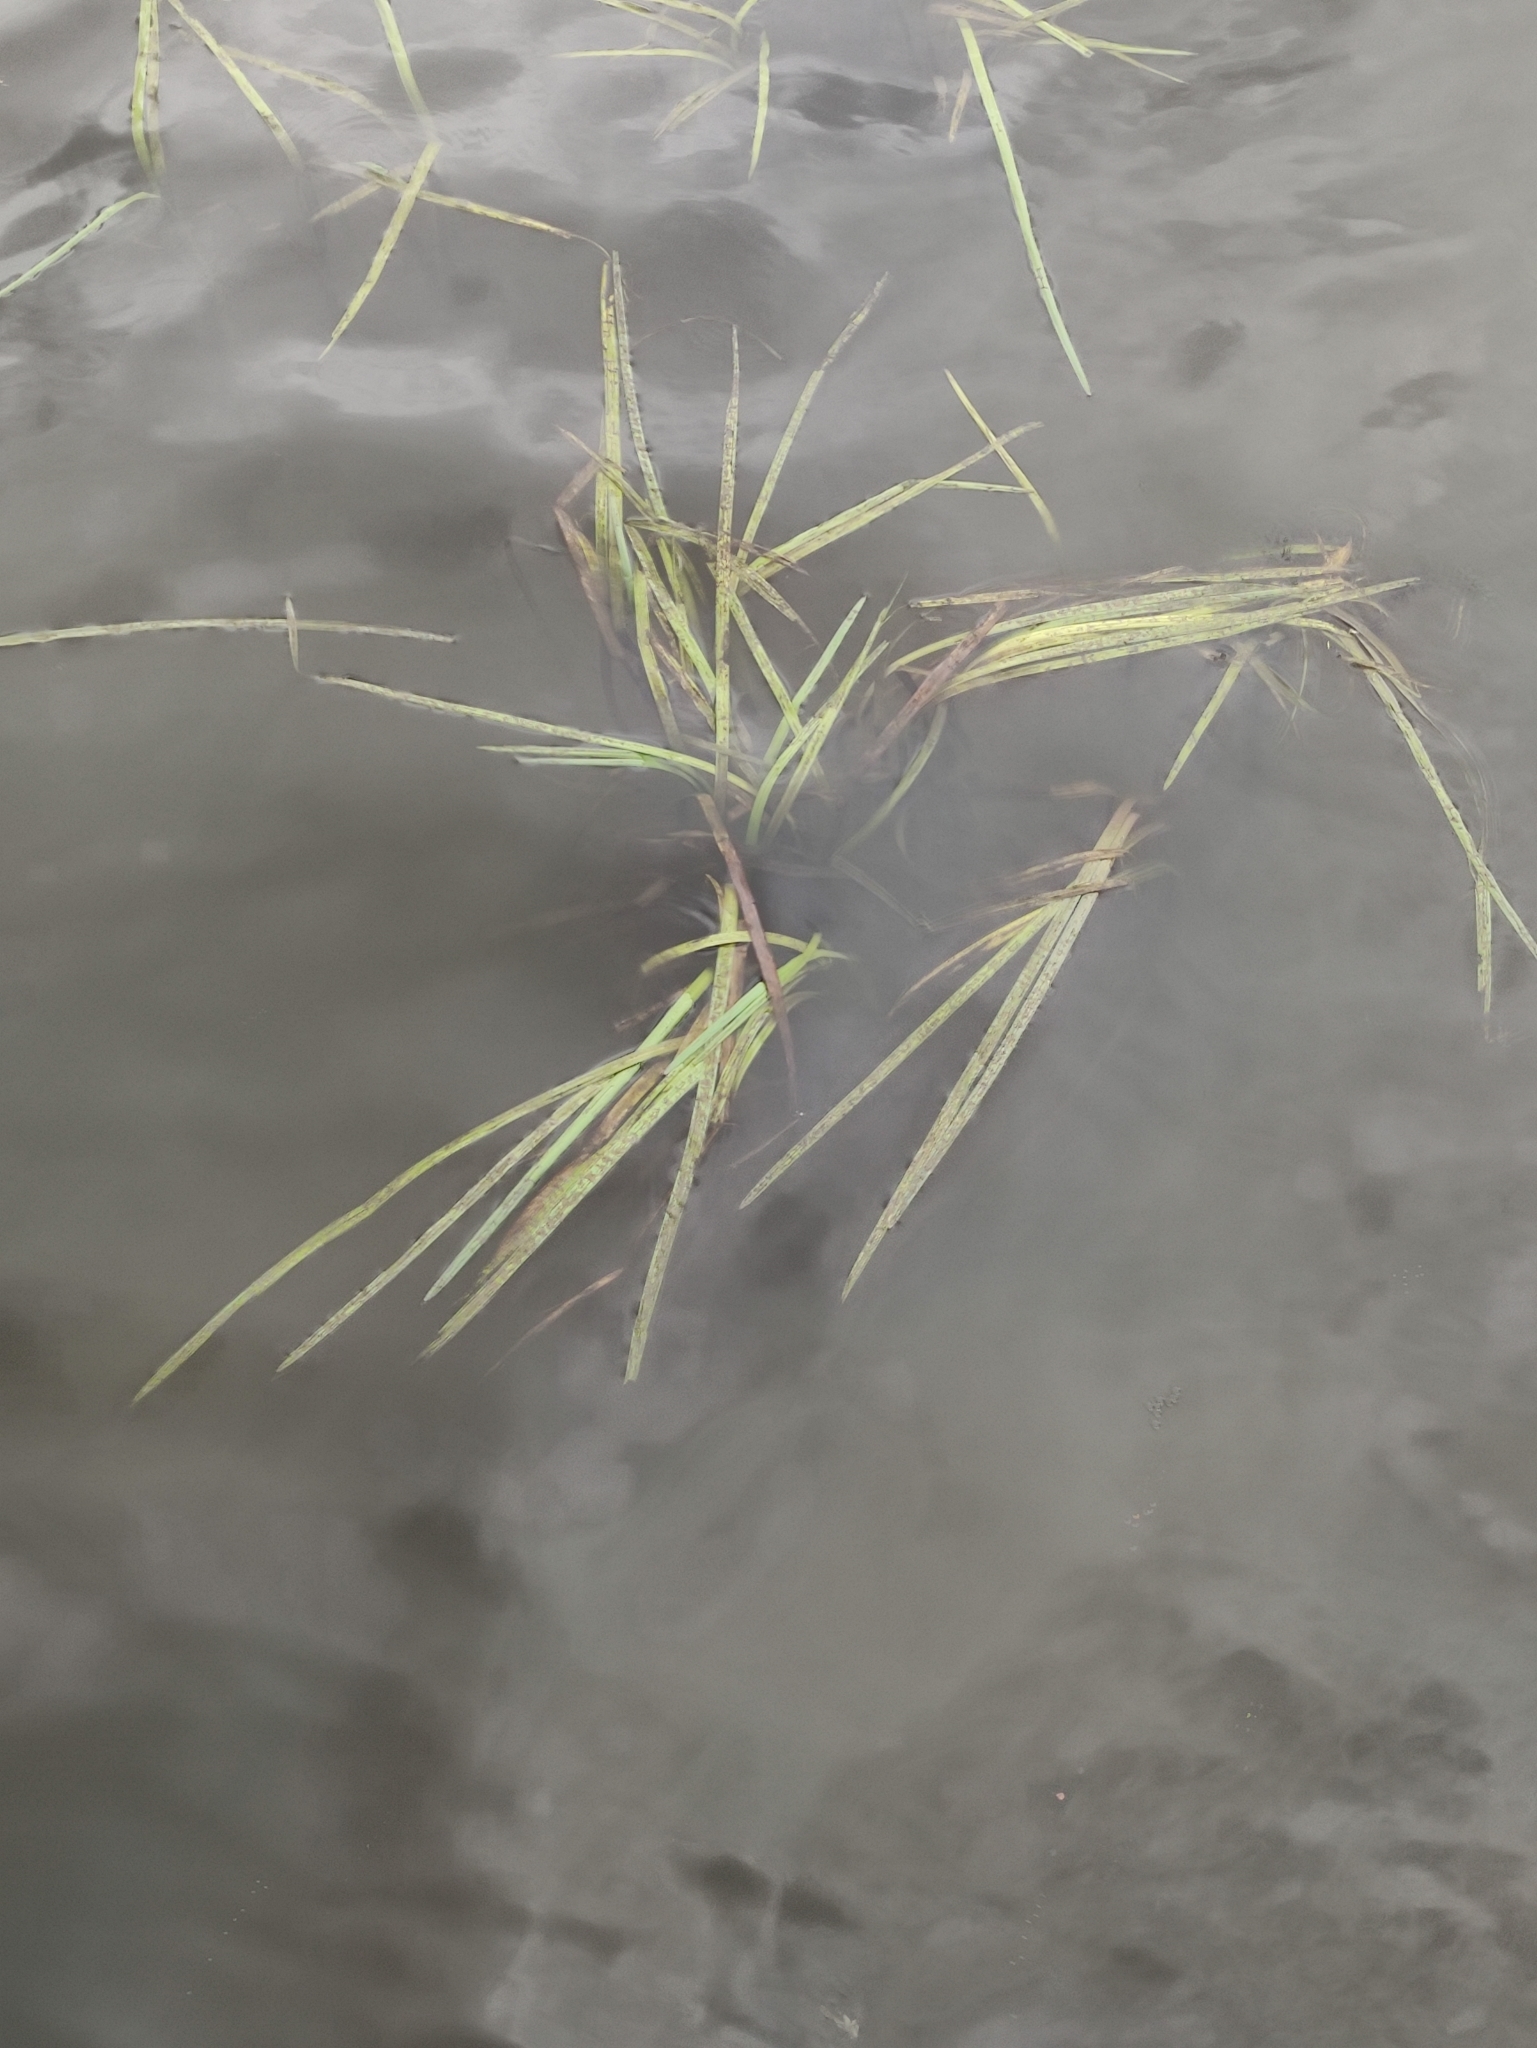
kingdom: Plantae
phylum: Tracheophyta
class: Liliopsida
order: Poales
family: Typhaceae
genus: Sparganium
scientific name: Sparganium emersum
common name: Unbranched bur-reed
